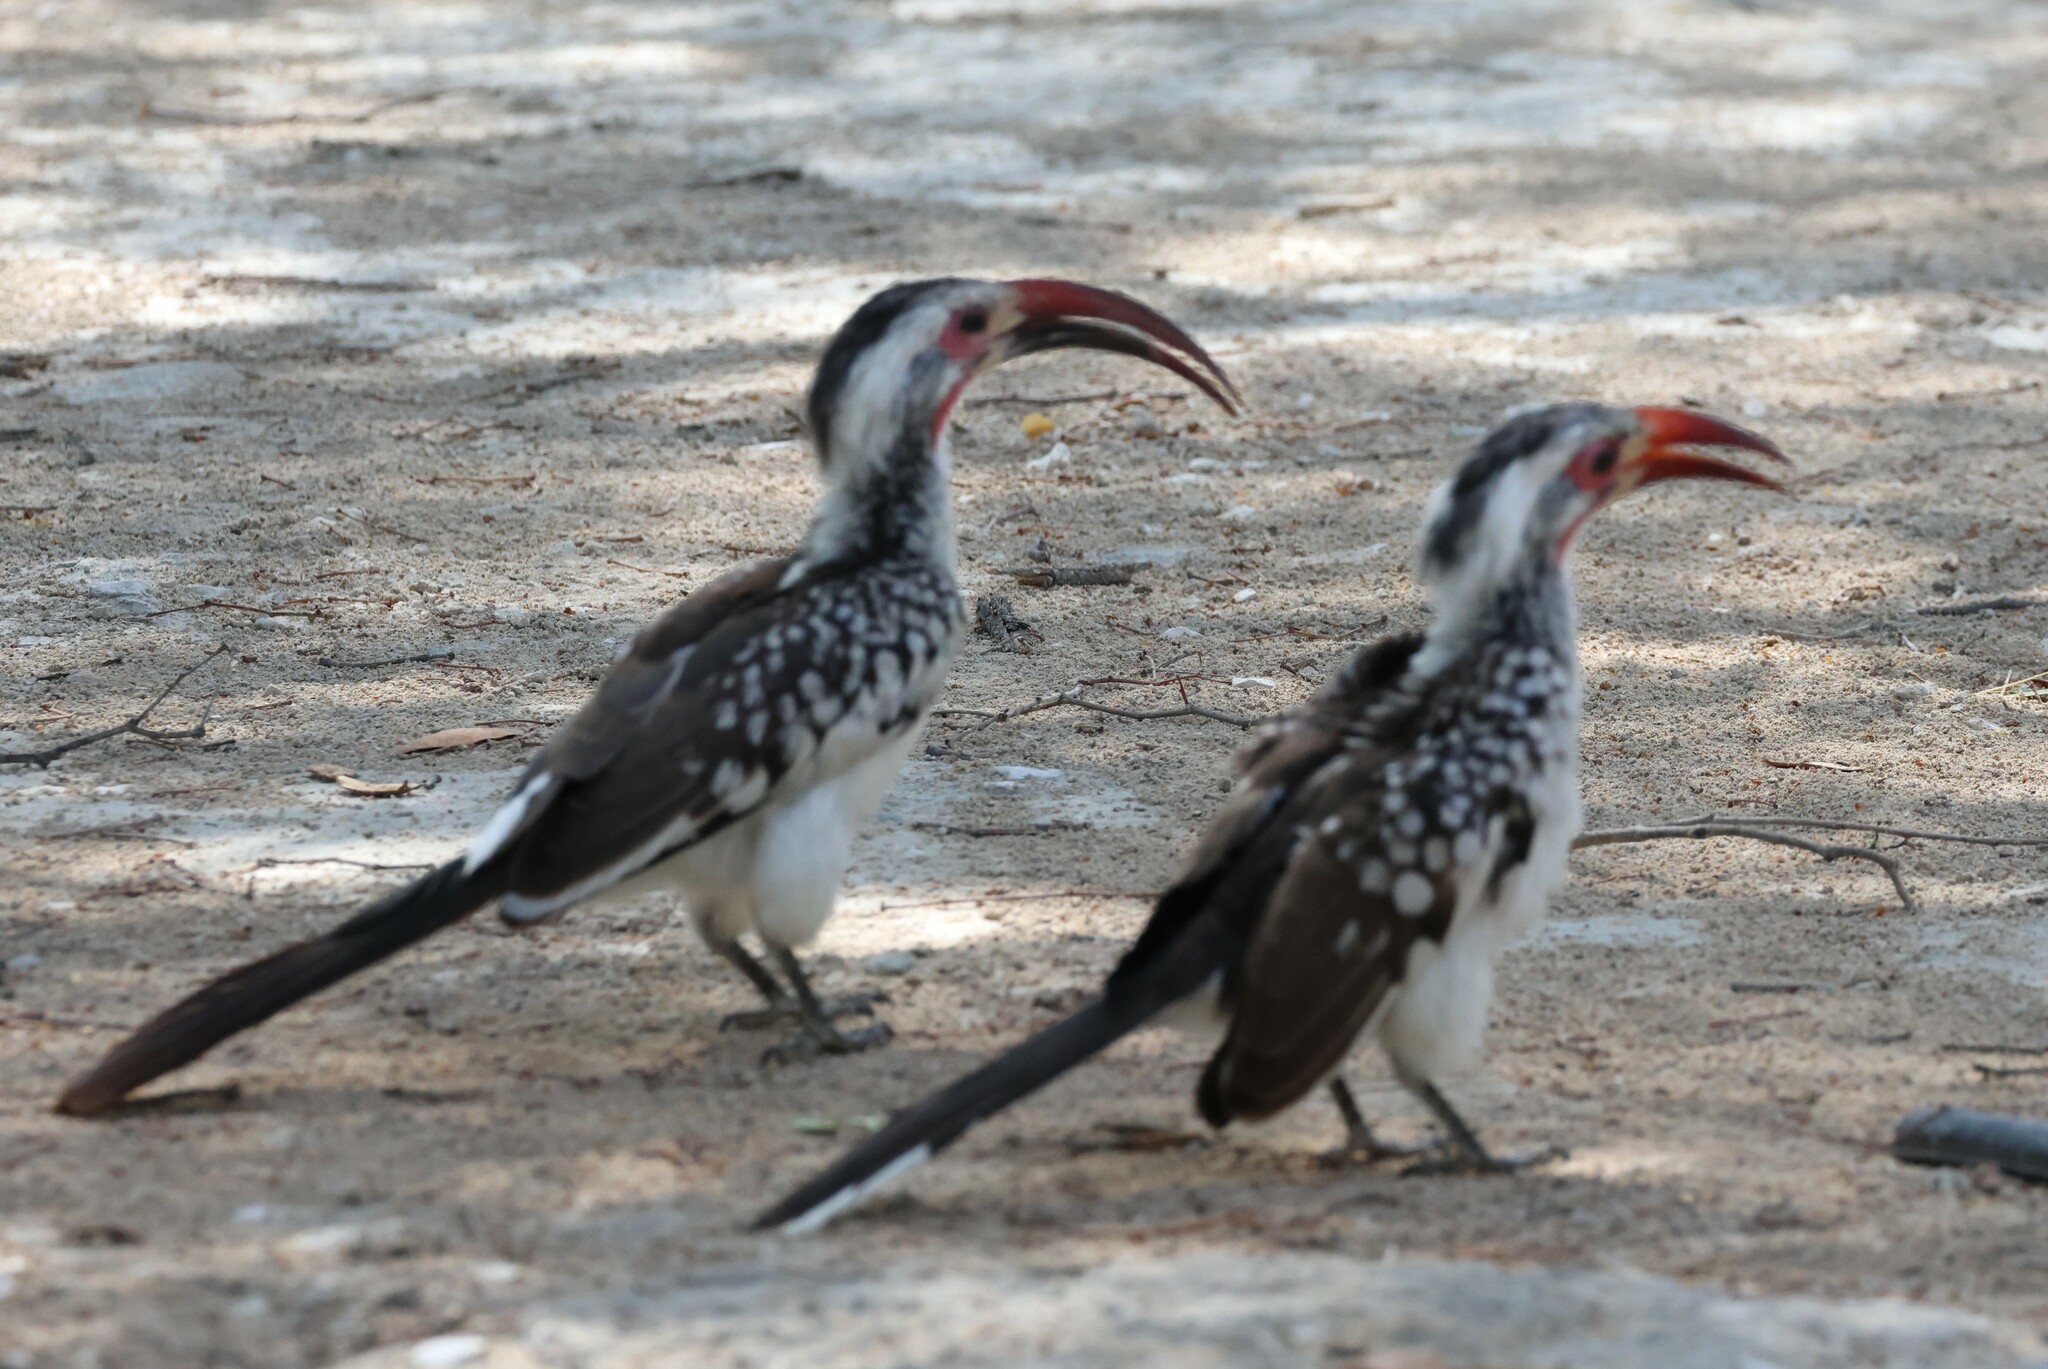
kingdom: Animalia
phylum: Chordata
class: Aves
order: Bucerotiformes
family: Bucerotidae
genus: Tockus
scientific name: Tockus rufirostris
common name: Southern red-billed hornbill
